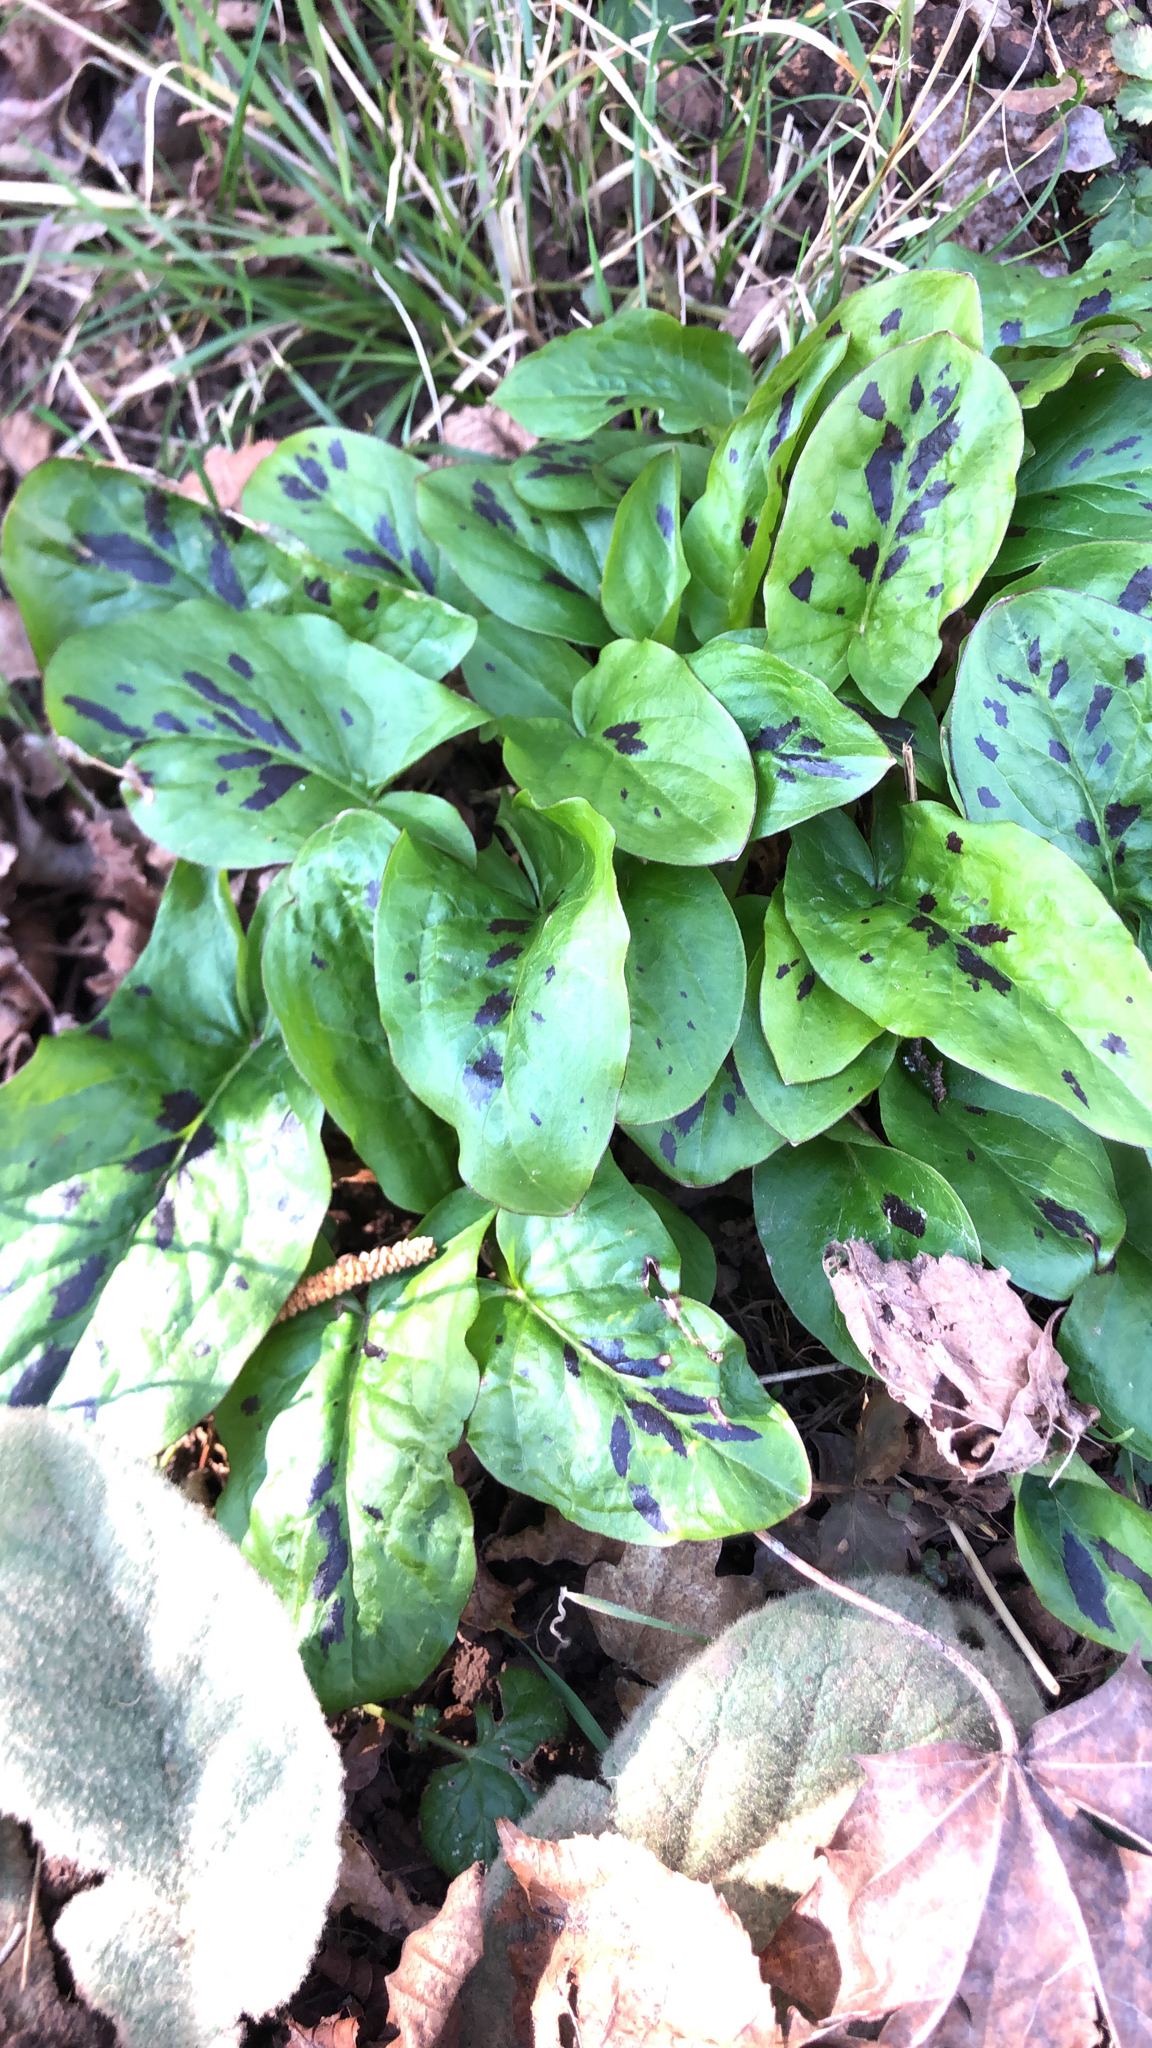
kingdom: Plantae
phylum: Tracheophyta
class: Liliopsida
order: Alismatales
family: Araceae
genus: Arum
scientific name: Arum maculatum
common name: Lords-and-ladies
